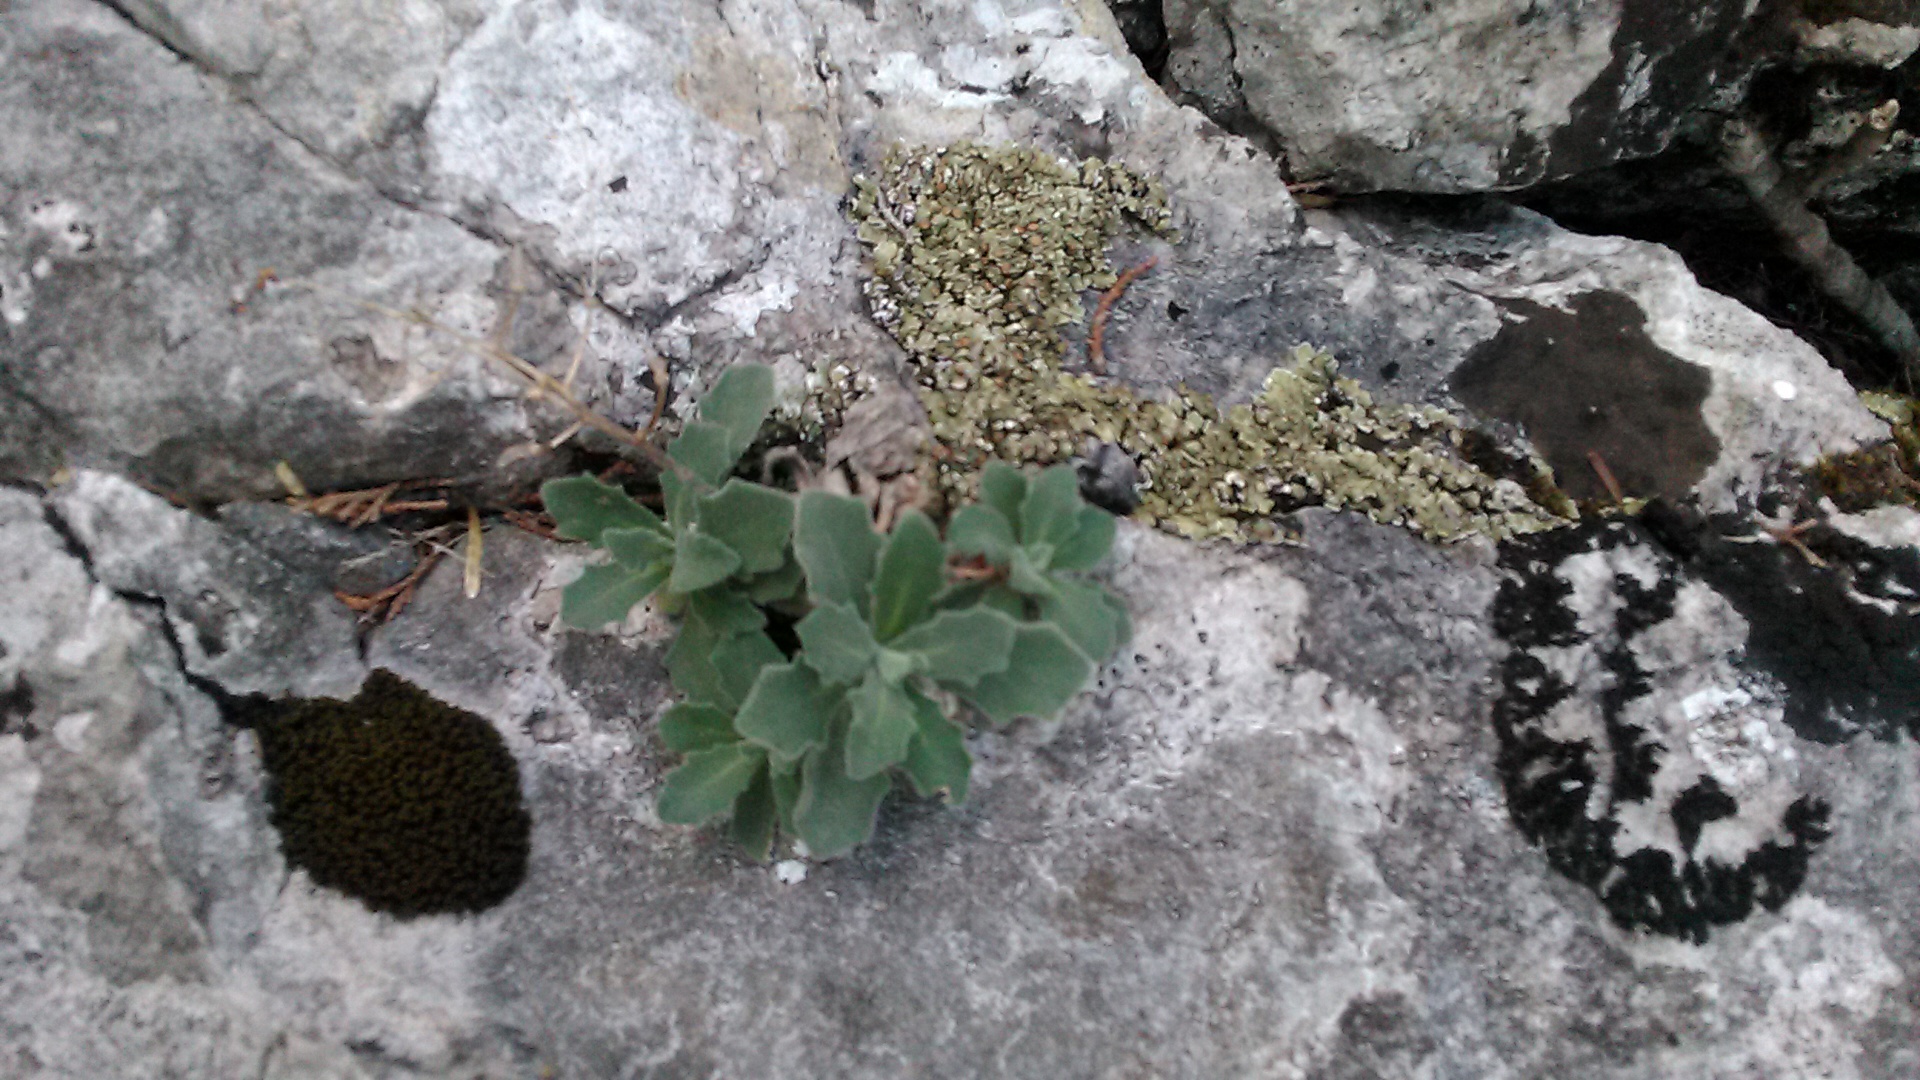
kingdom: Plantae
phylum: Tracheophyta
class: Magnoliopsida
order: Brassicales
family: Brassicaceae
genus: Arabis
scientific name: Arabis caucasica
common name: Gray rockcress
